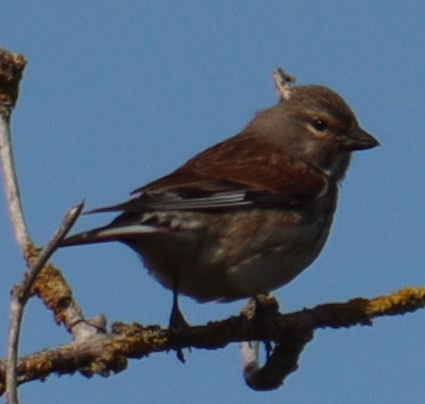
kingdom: Animalia
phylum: Chordata
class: Aves
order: Passeriformes
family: Fringillidae
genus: Linaria
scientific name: Linaria cannabina
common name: Common linnet
